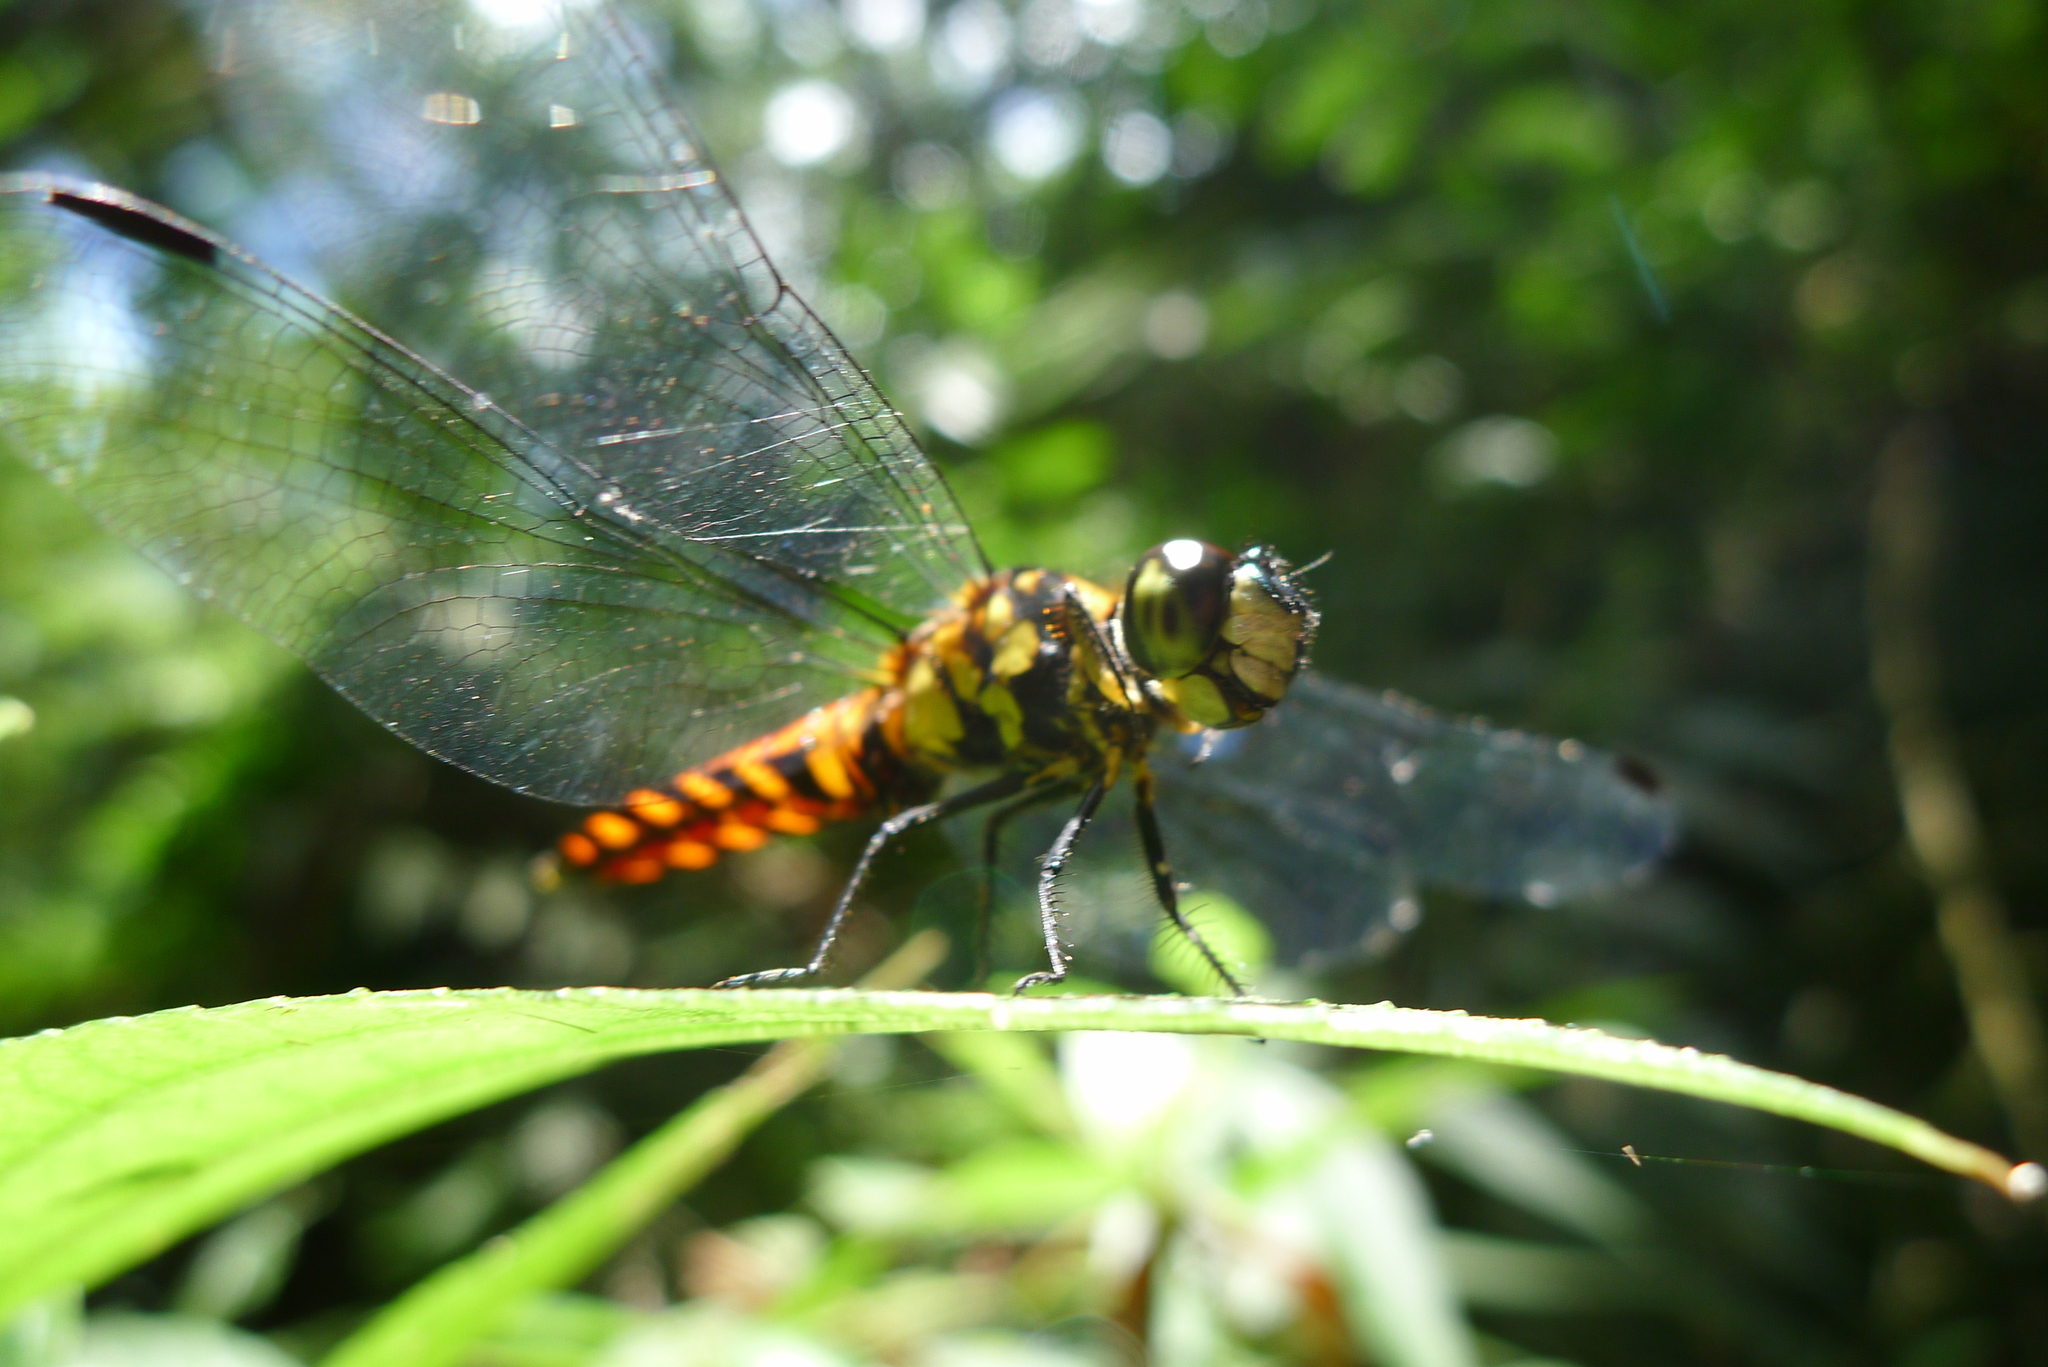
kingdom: Animalia
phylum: Arthropoda
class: Insecta
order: Odonata
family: Libellulidae
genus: Lyriothemis
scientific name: Lyriothemis elegantissima
